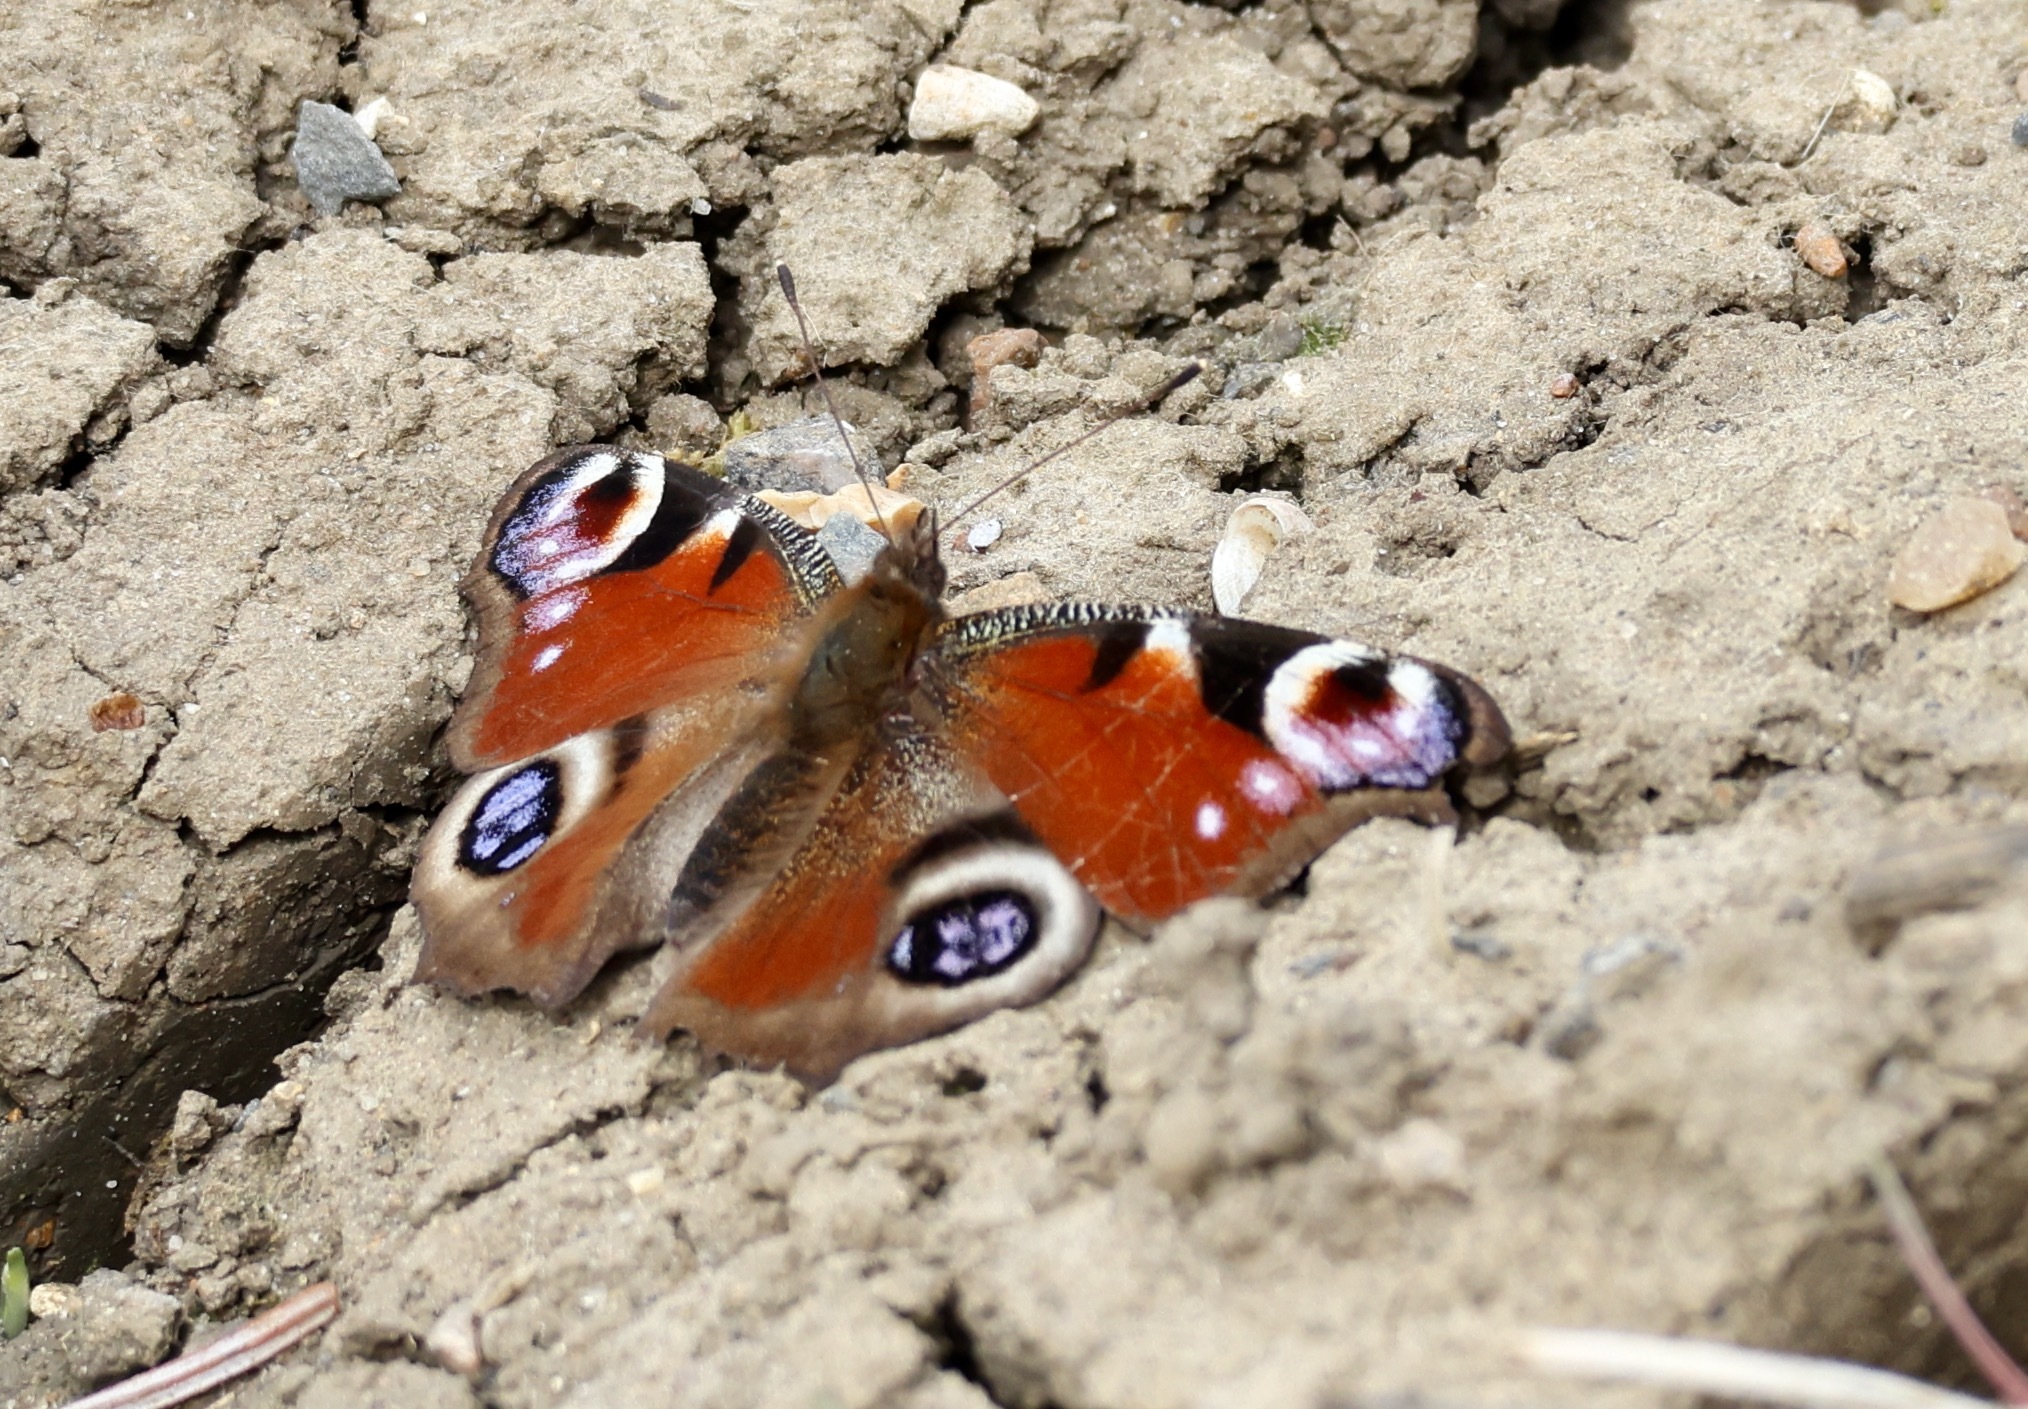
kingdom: Animalia
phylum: Arthropoda
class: Insecta
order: Lepidoptera
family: Nymphalidae
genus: Aglais
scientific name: Aglais io
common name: Peacock
